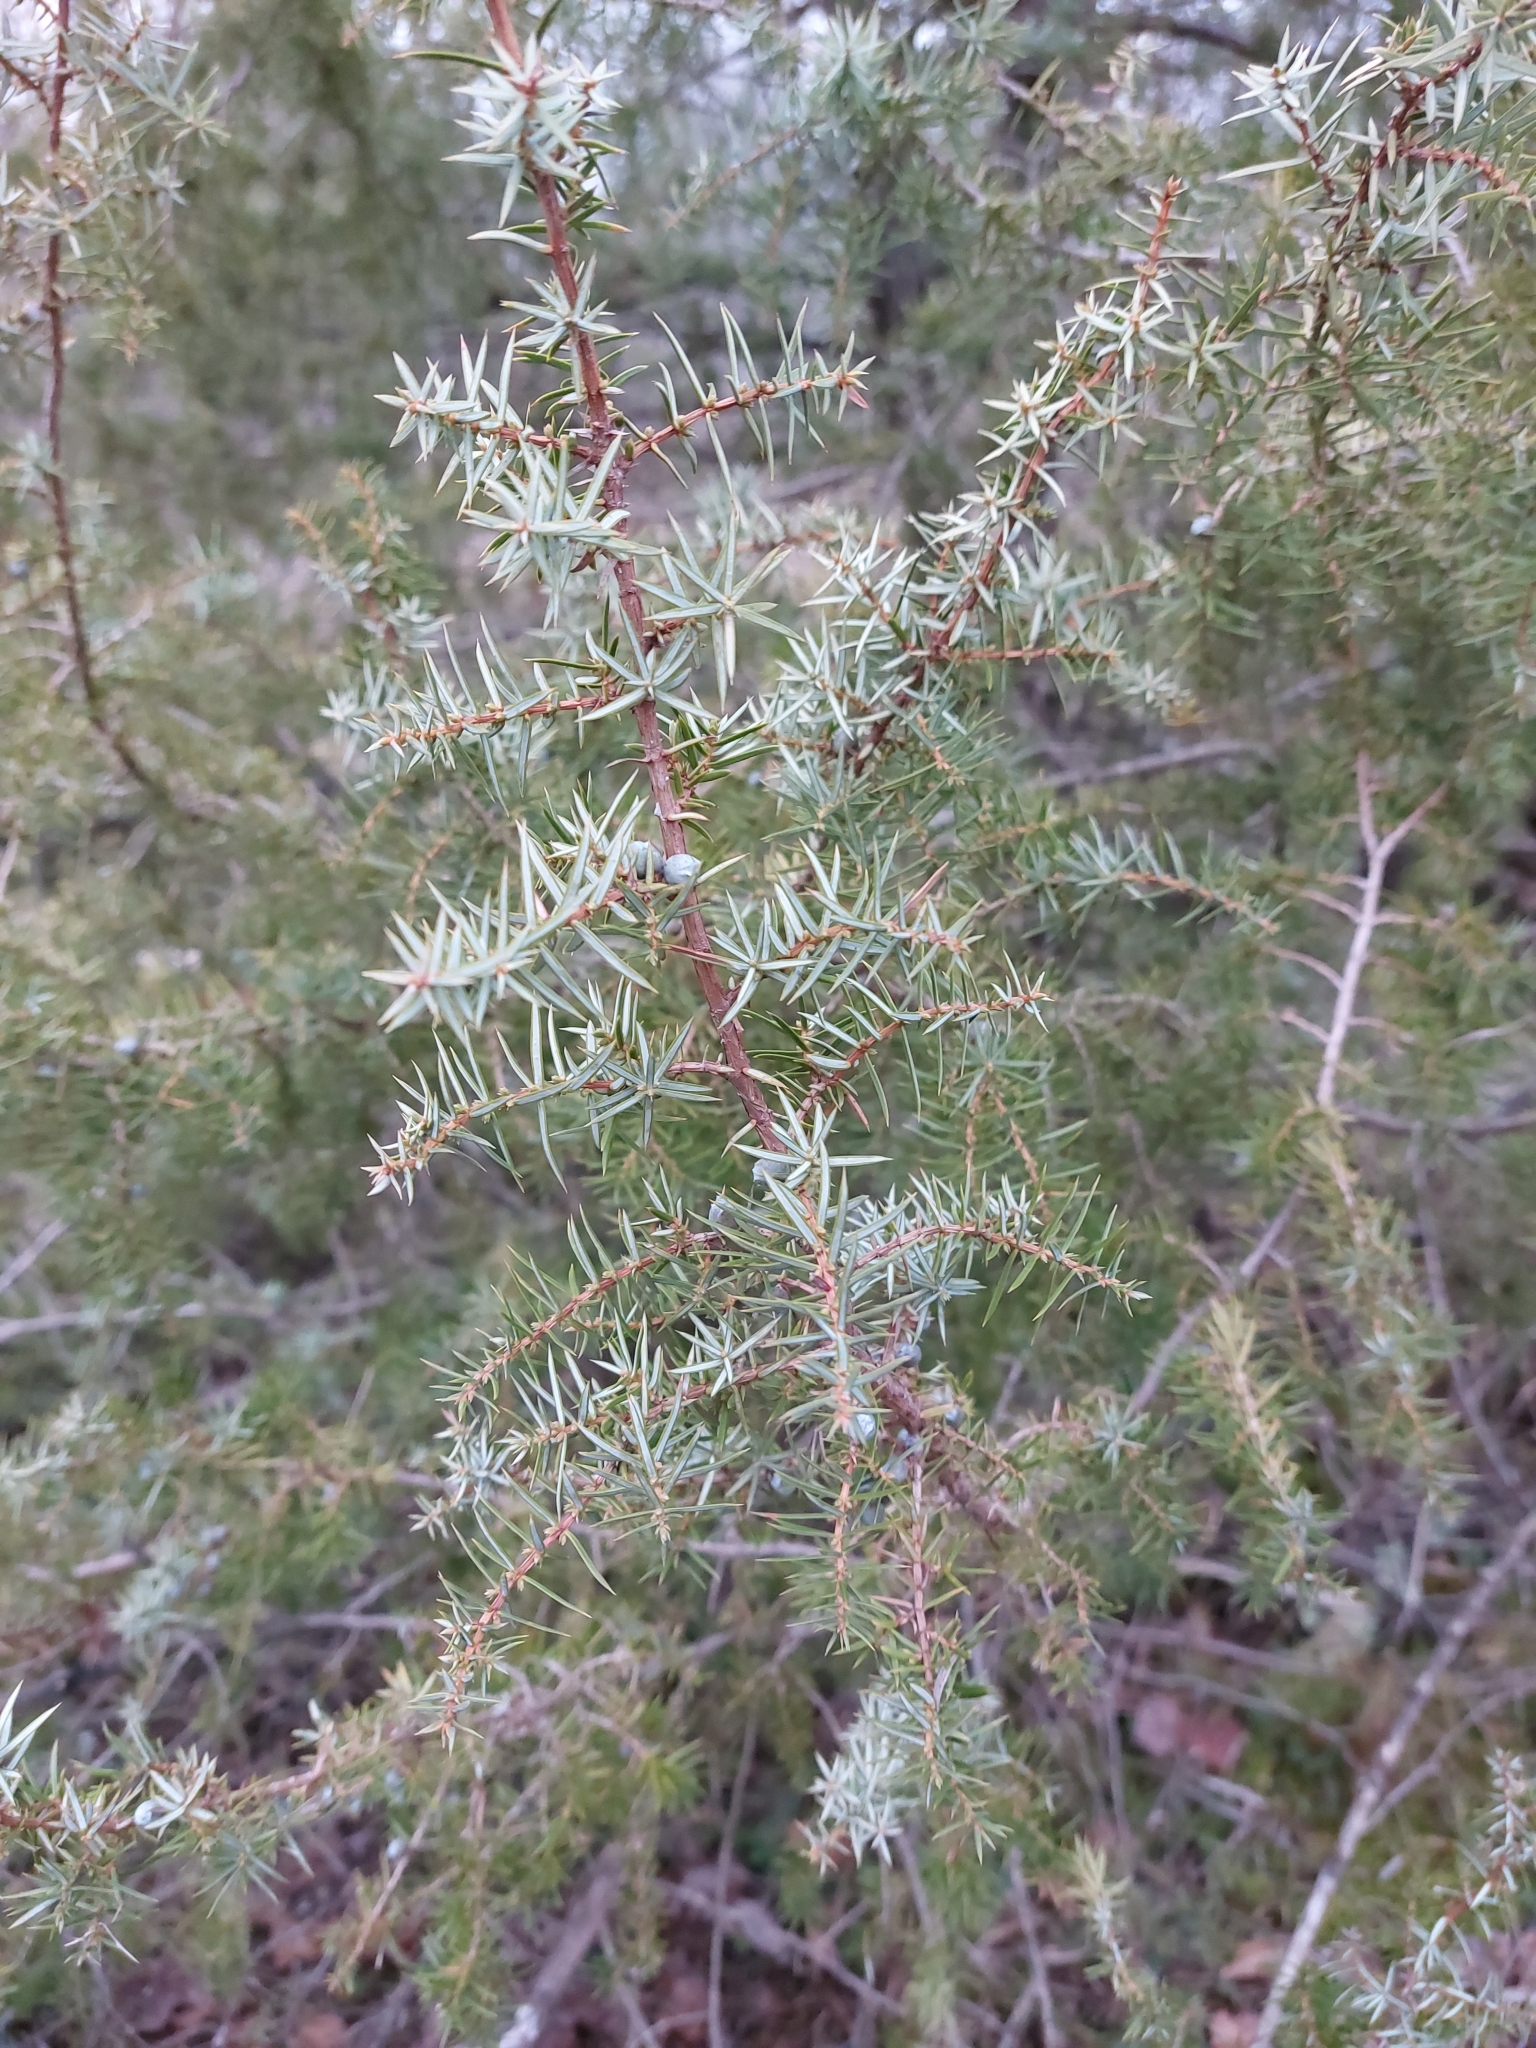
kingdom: Plantae
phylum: Tracheophyta
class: Pinopsida
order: Pinales
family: Cupressaceae
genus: Juniperus
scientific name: Juniperus communis
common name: Common juniper
